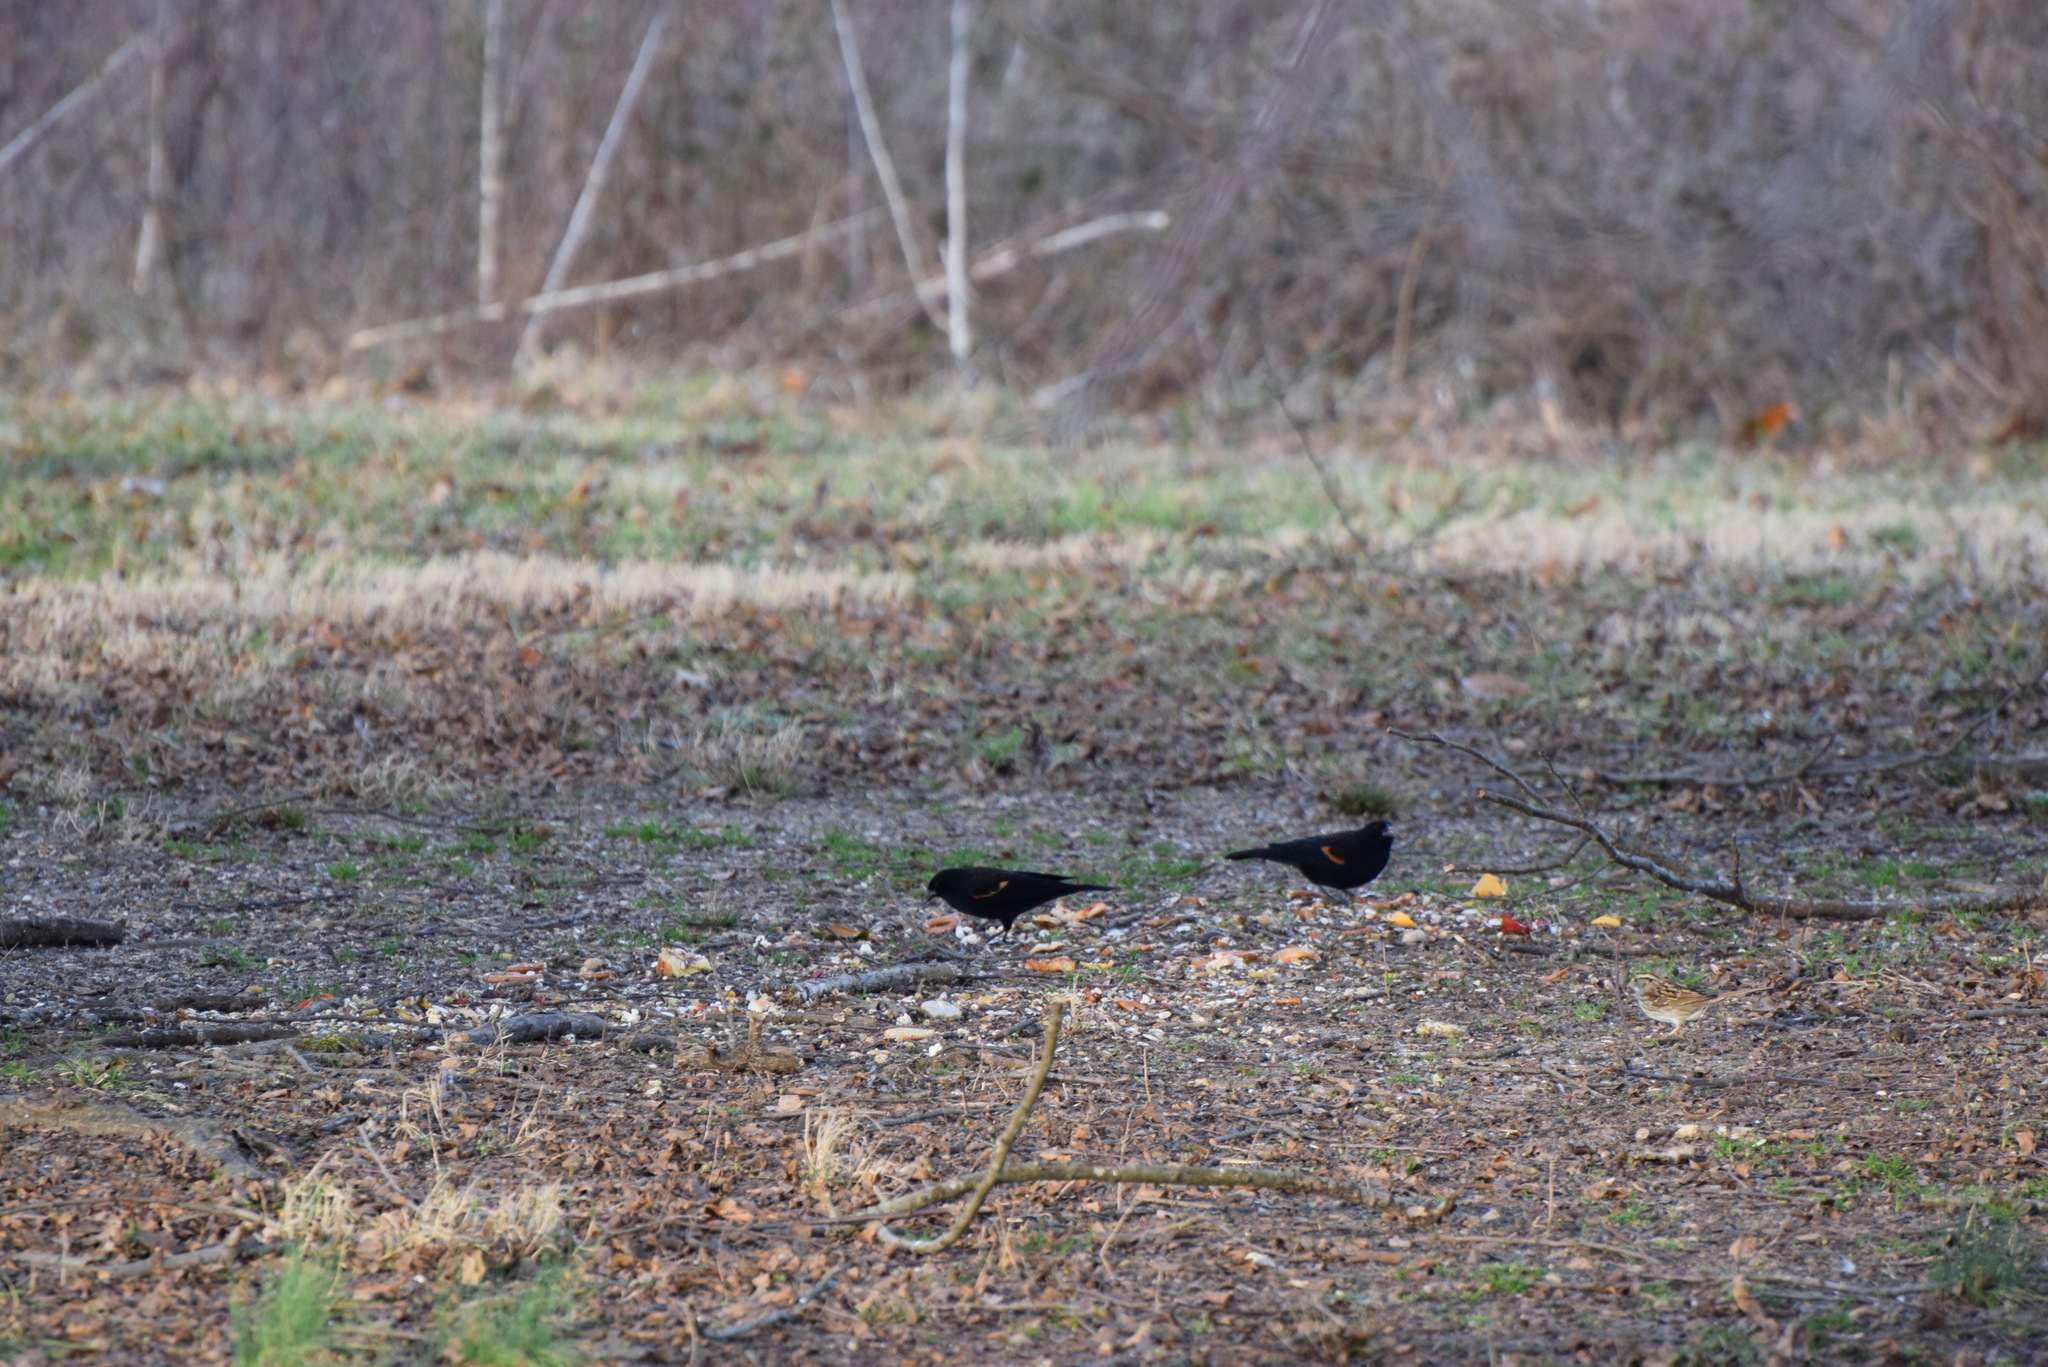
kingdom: Animalia
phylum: Chordata
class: Aves
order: Passeriformes
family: Icteridae
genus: Agelaius
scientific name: Agelaius phoeniceus
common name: Red-winged blackbird
